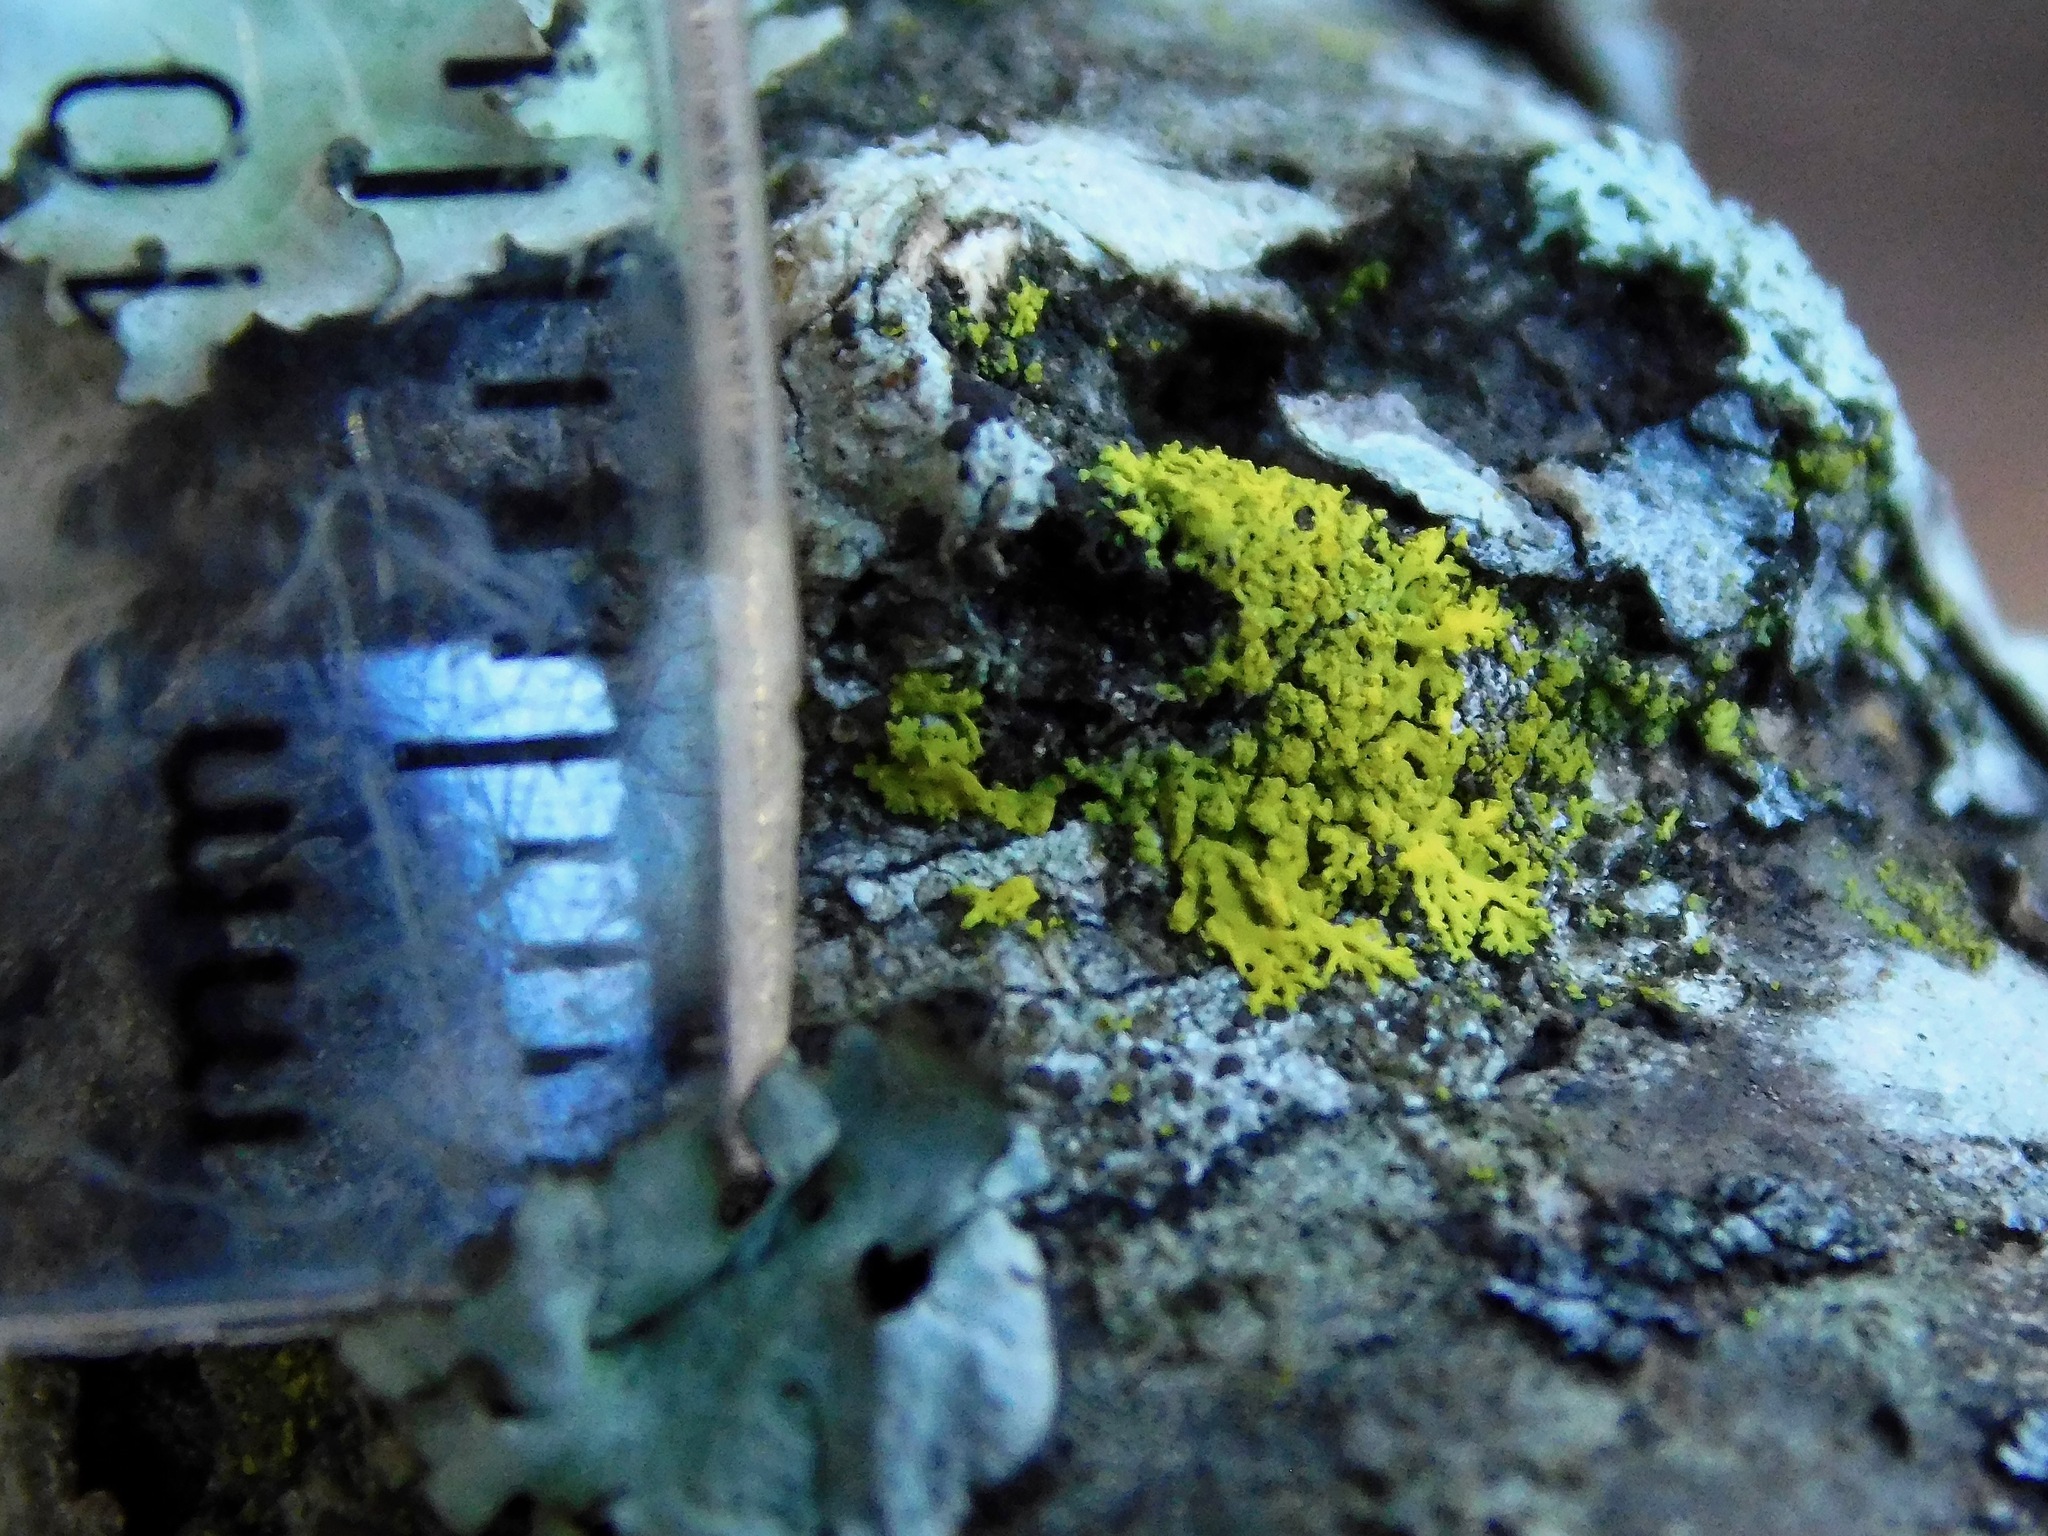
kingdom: Fungi
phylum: Ascomycota
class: Candelariomycetes
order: Candelariales
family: Candelariaceae
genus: Candelaria
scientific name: Candelaria concolor
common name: Candleflame lichen
